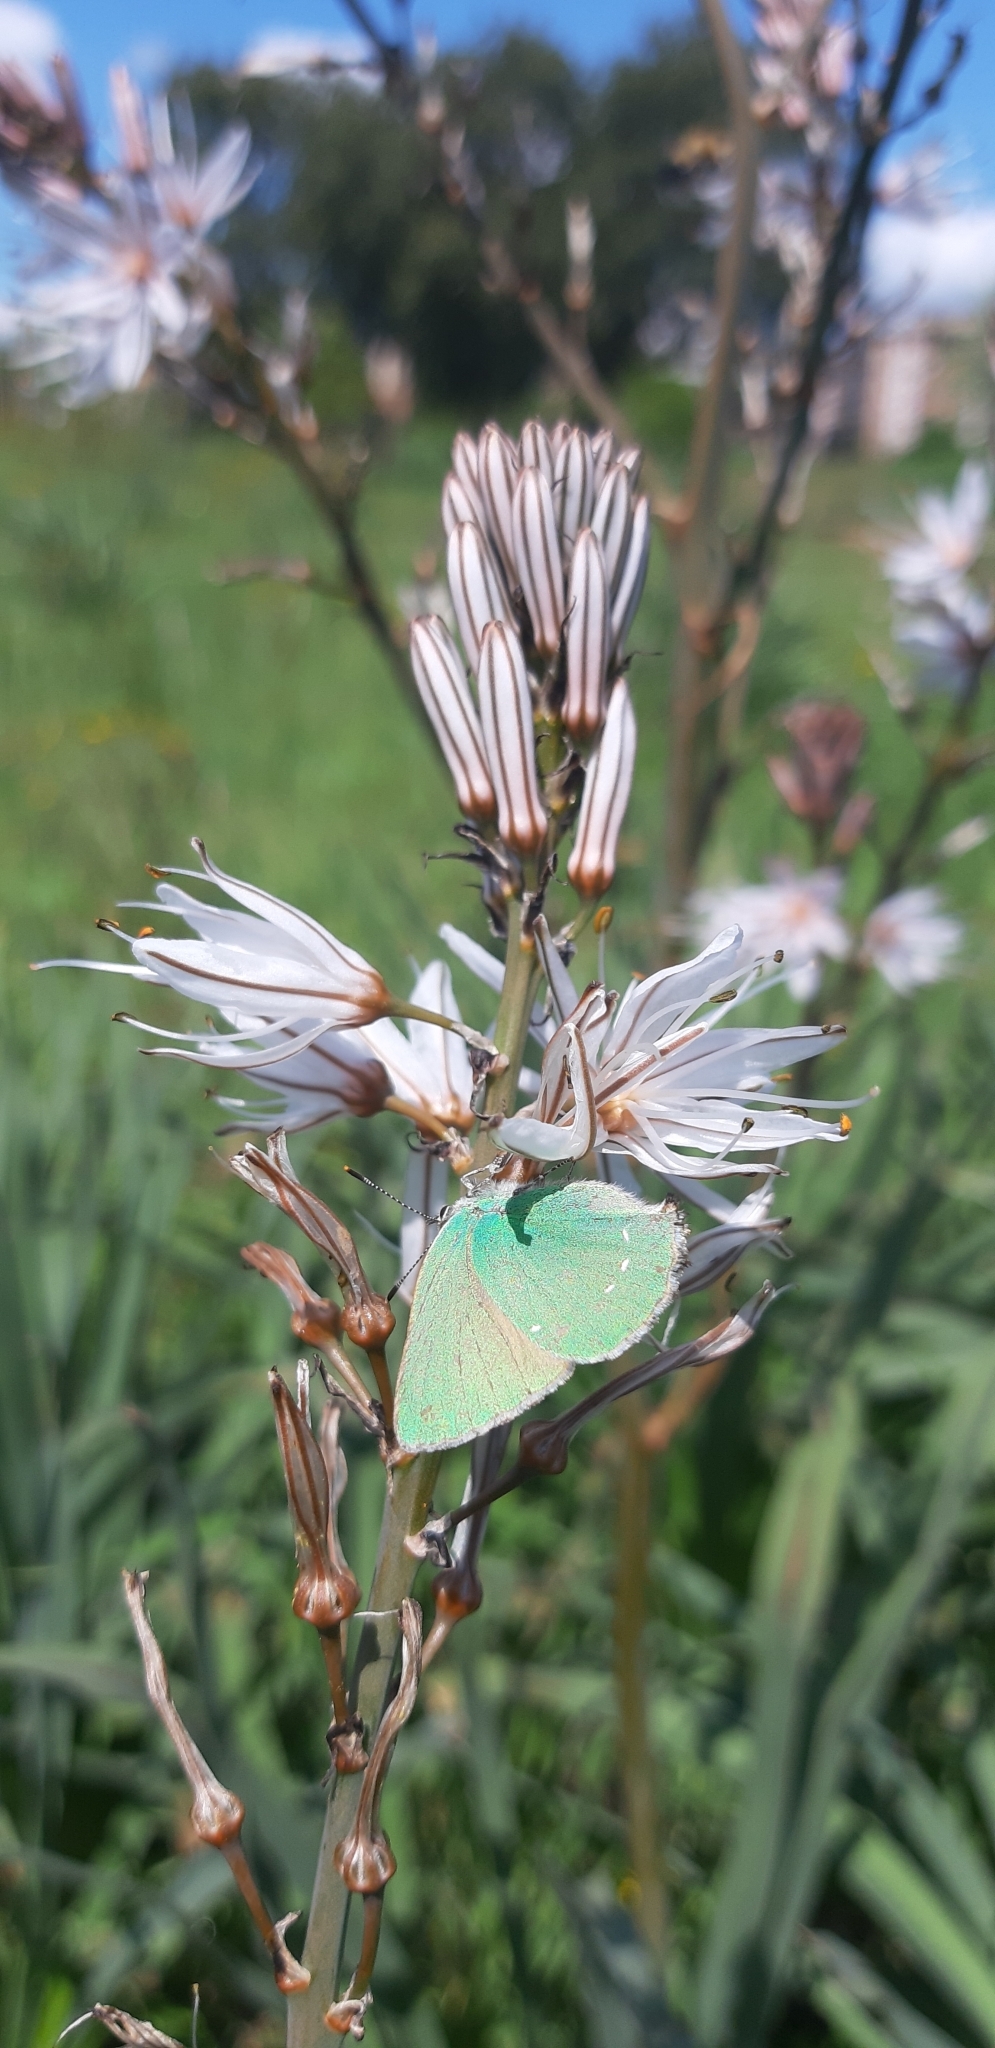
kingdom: Animalia
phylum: Arthropoda
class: Insecta
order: Lepidoptera
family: Lycaenidae
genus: Callophrys
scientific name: Callophrys rubi
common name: Green hairstreak
